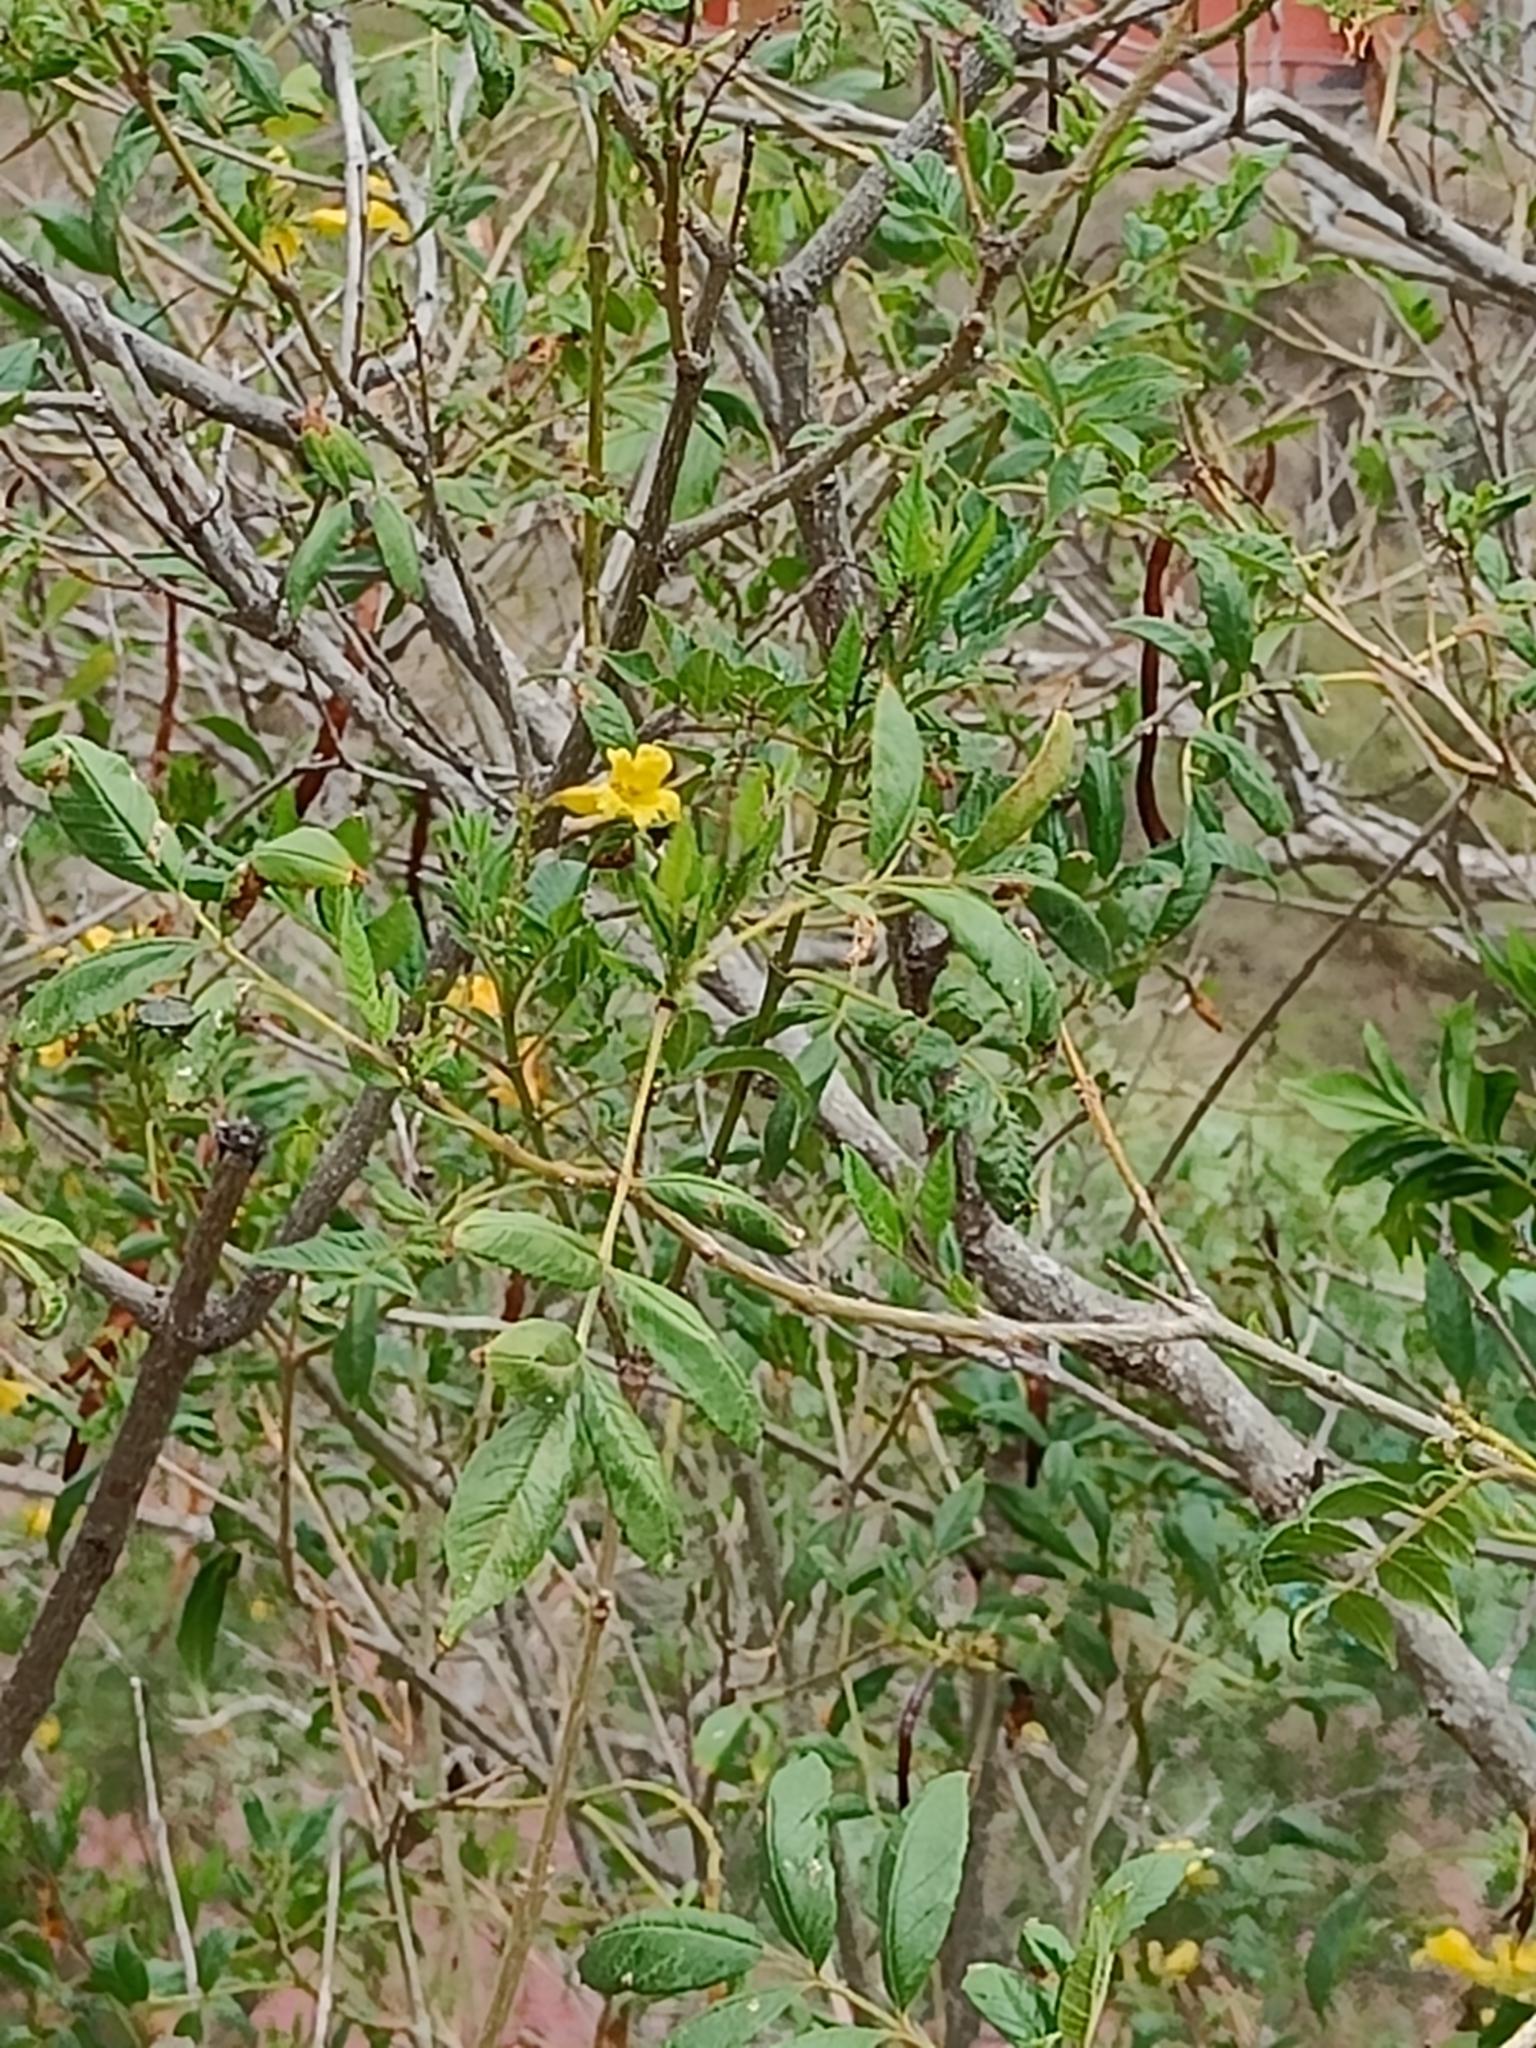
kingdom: Plantae
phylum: Tracheophyta
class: Magnoliopsida
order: Lamiales
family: Bignoniaceae
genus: Tecoma
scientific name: Tecoma stans
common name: Yellow trumpetbush
